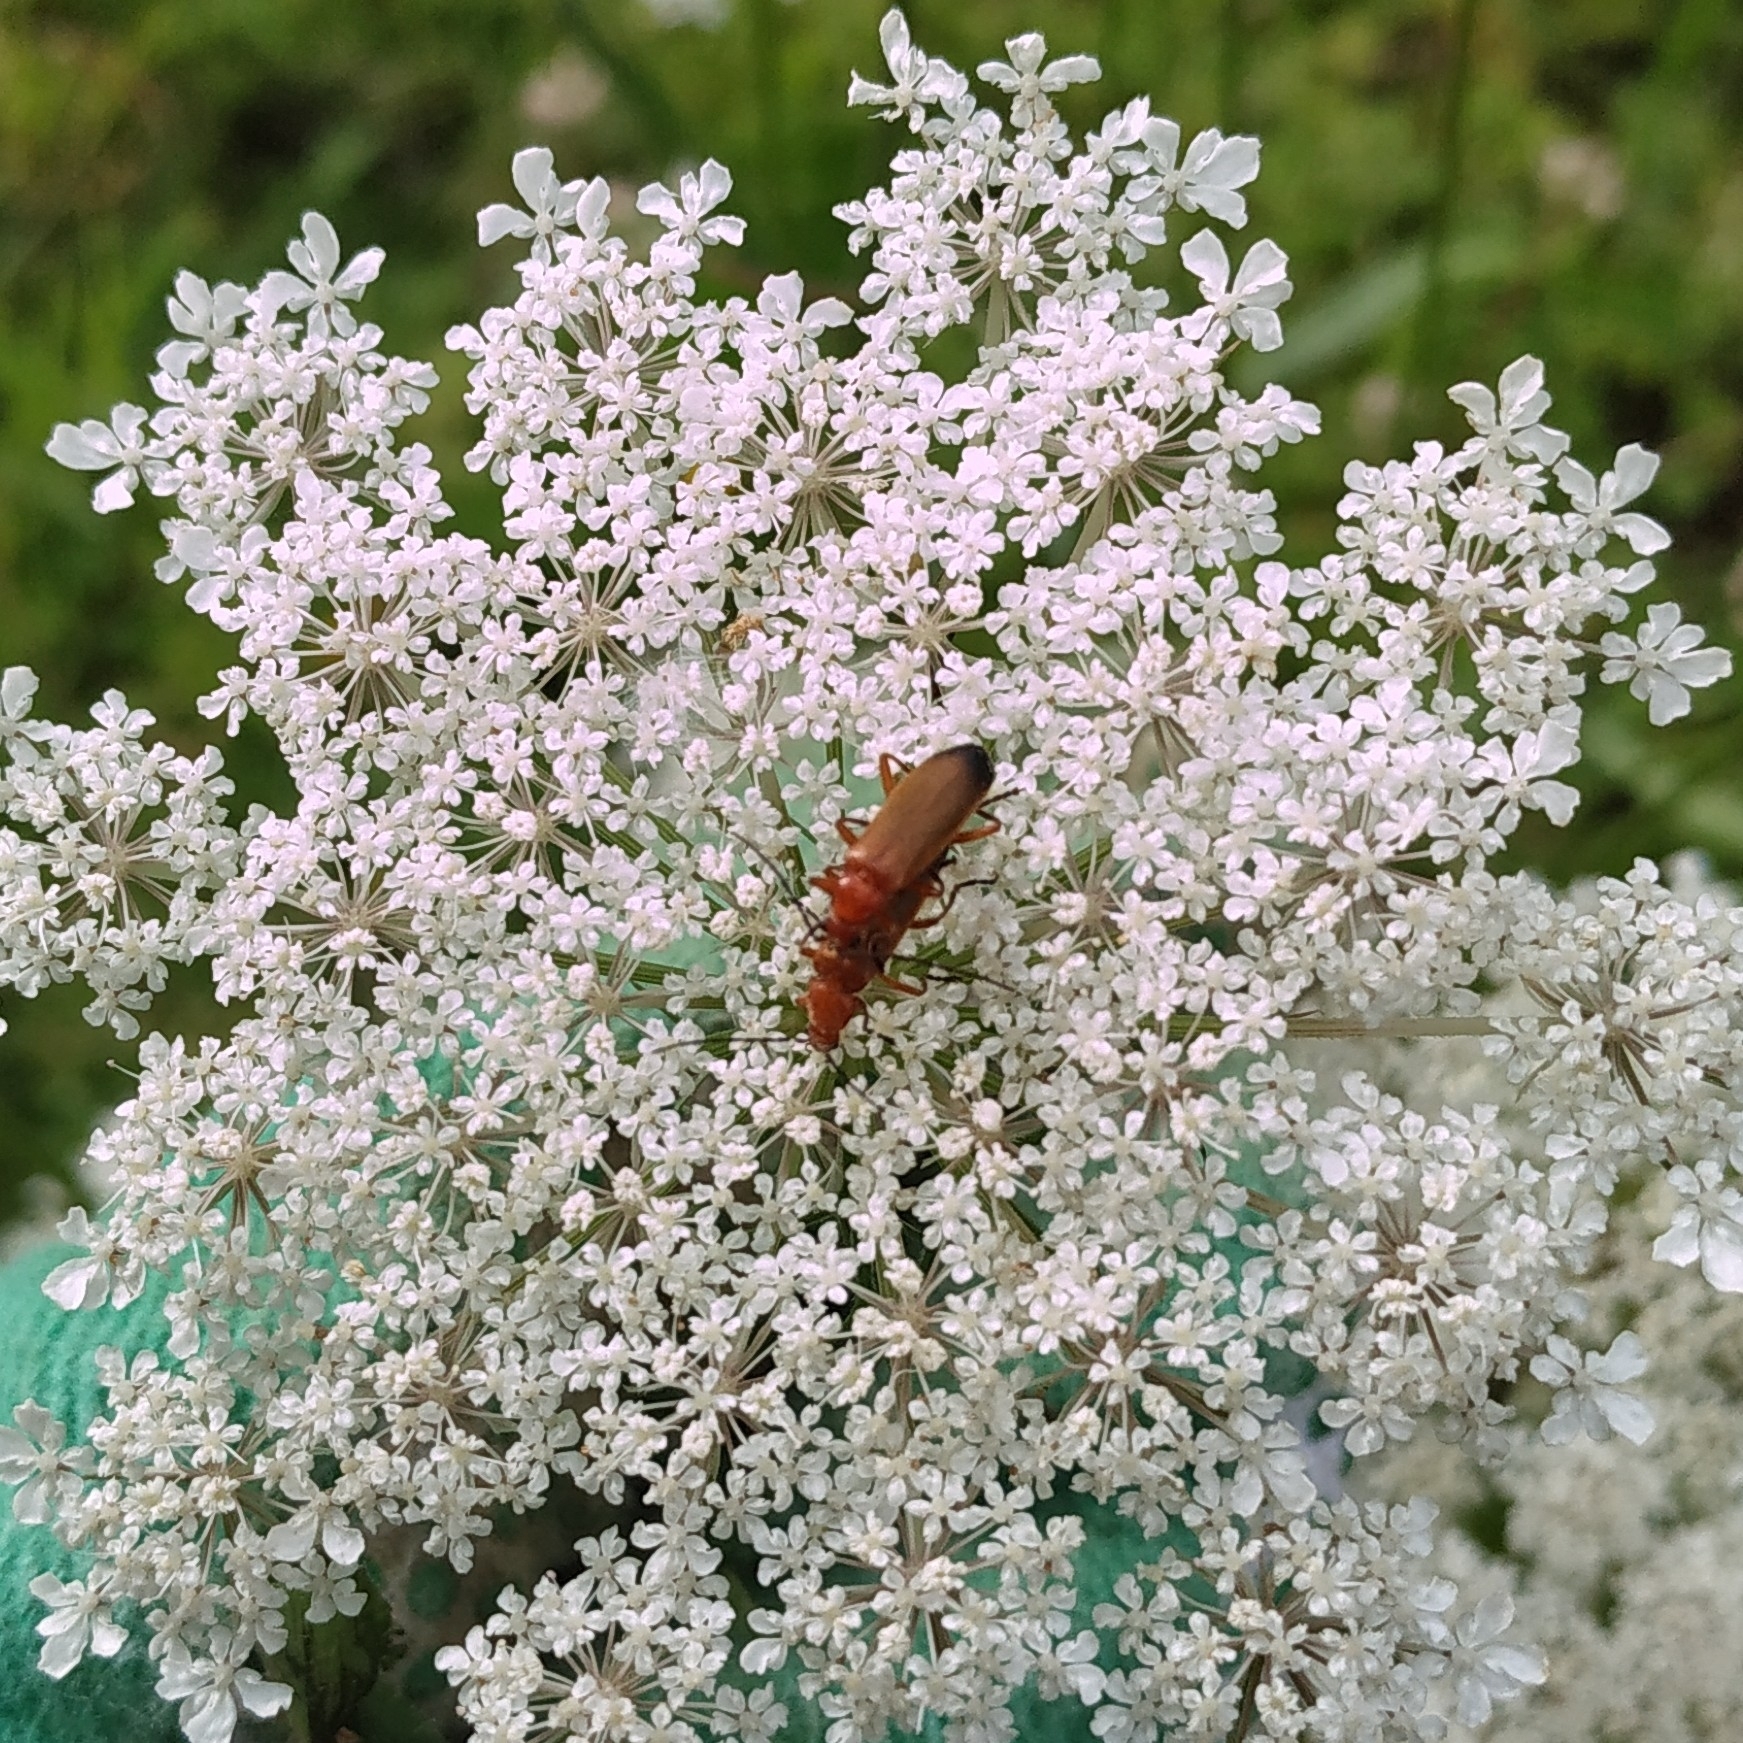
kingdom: Animalia
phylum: Arthropoda
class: Insecta
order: Coleoptera
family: Cantharidae
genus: Rhagonycha
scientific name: Rhagonycha fulva
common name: Common red soldier beetle
